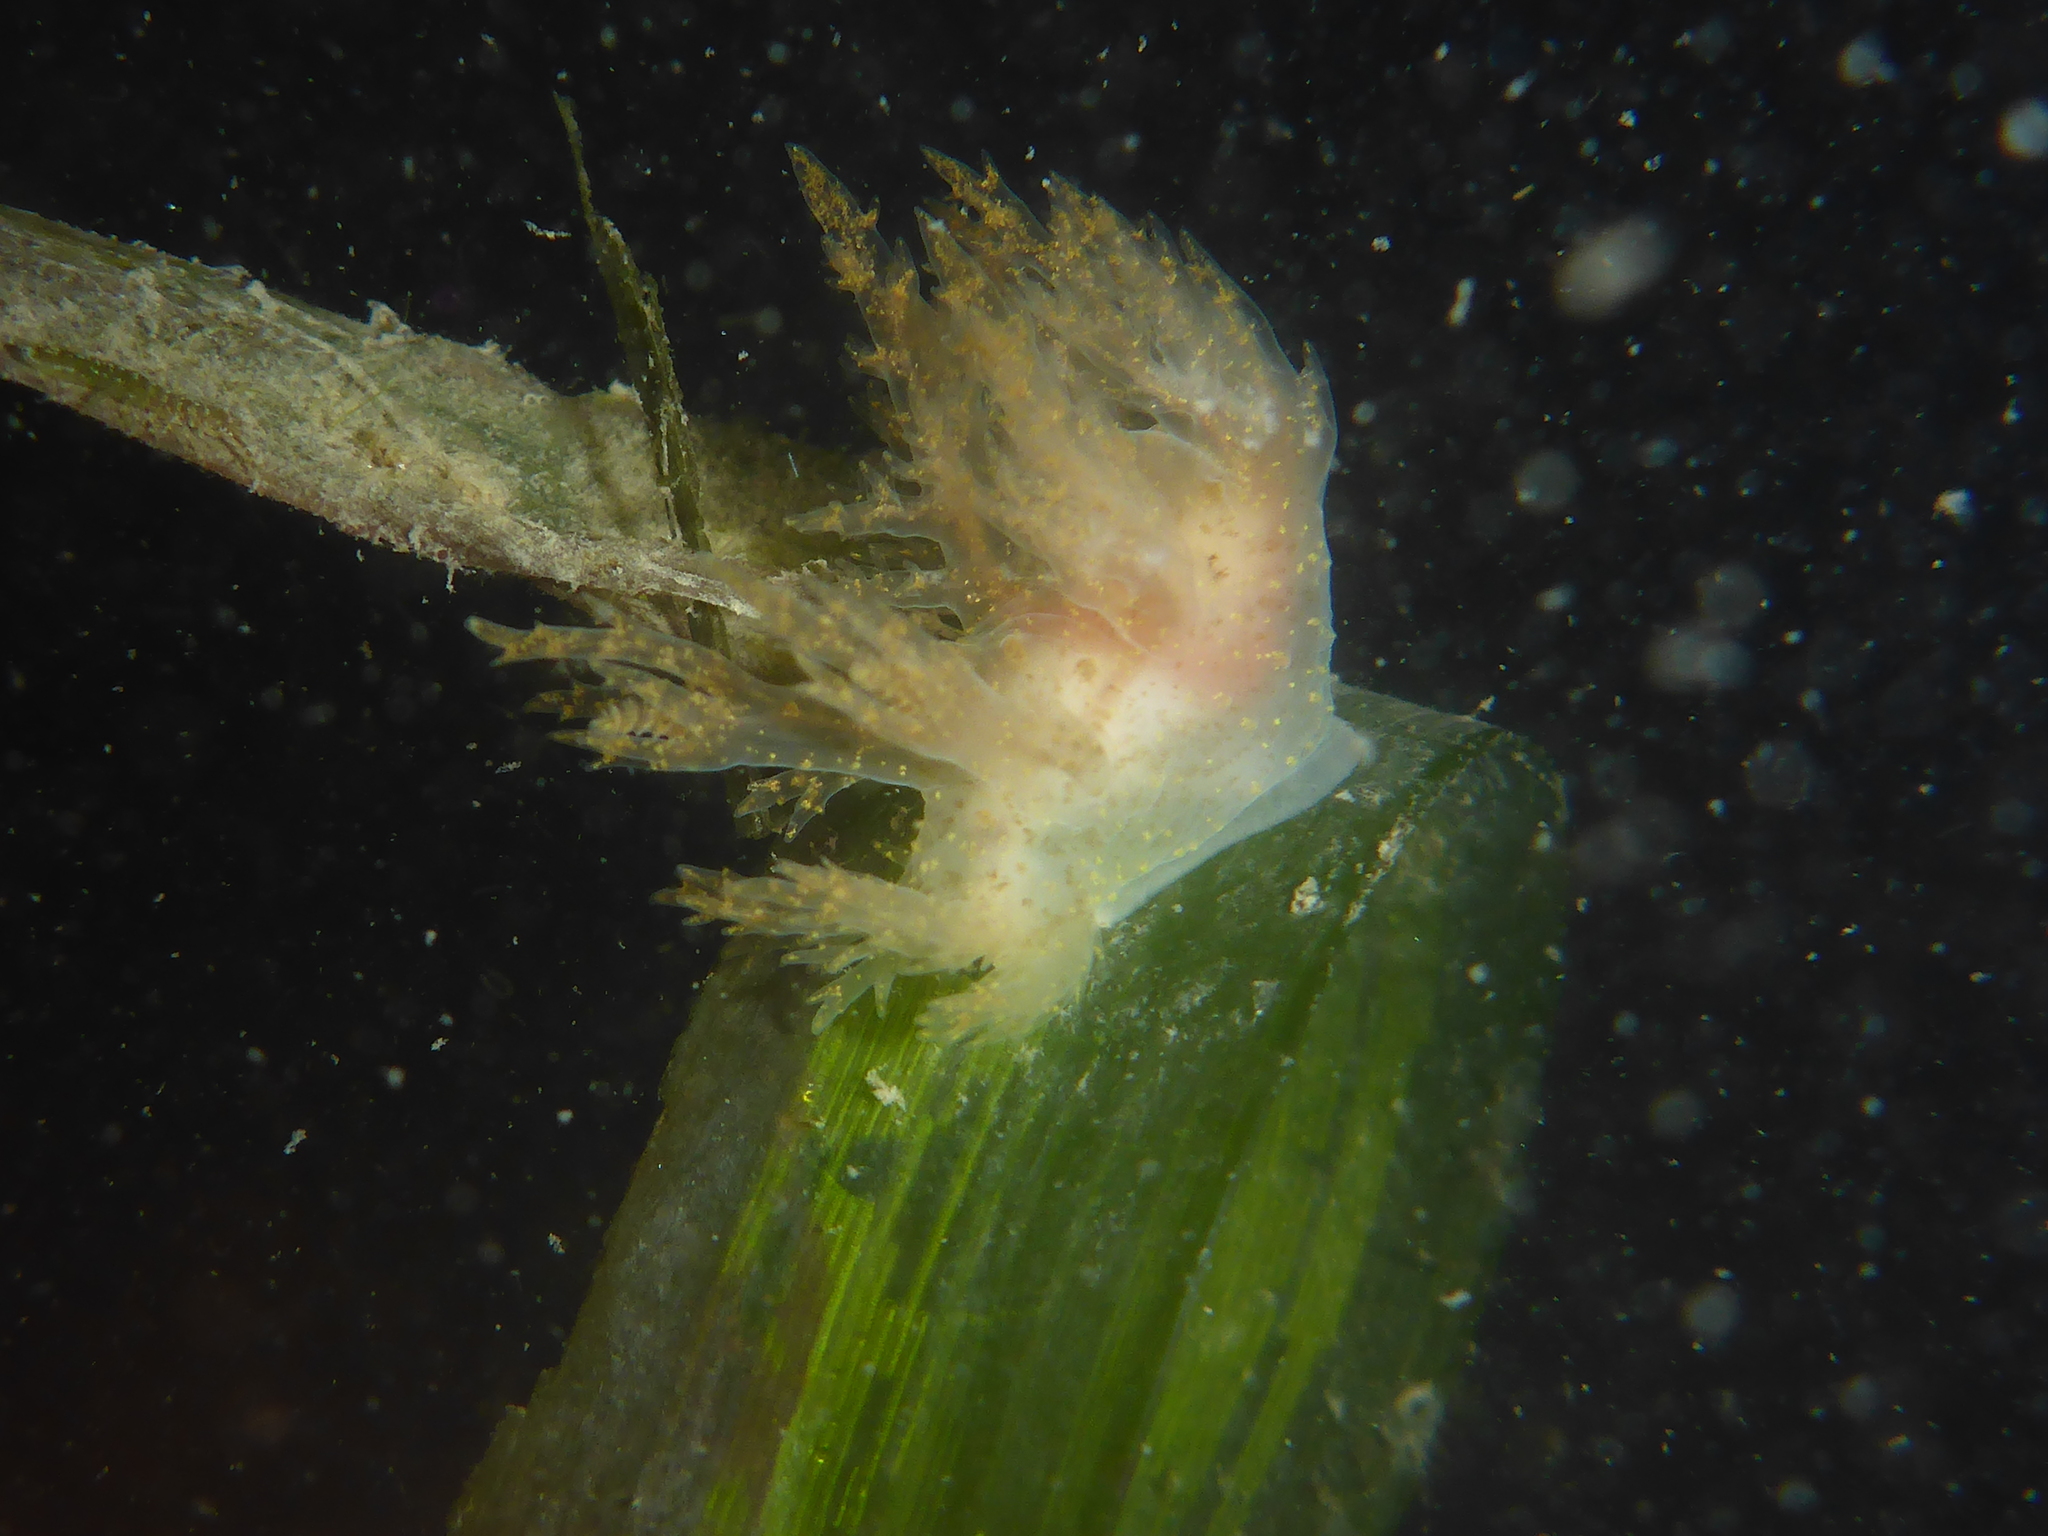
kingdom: Animalia
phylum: Mollusca
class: Gastropoda
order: Nudibranchia
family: Dendronotidae
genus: Dendronotus
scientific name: Dendronotus venustus
